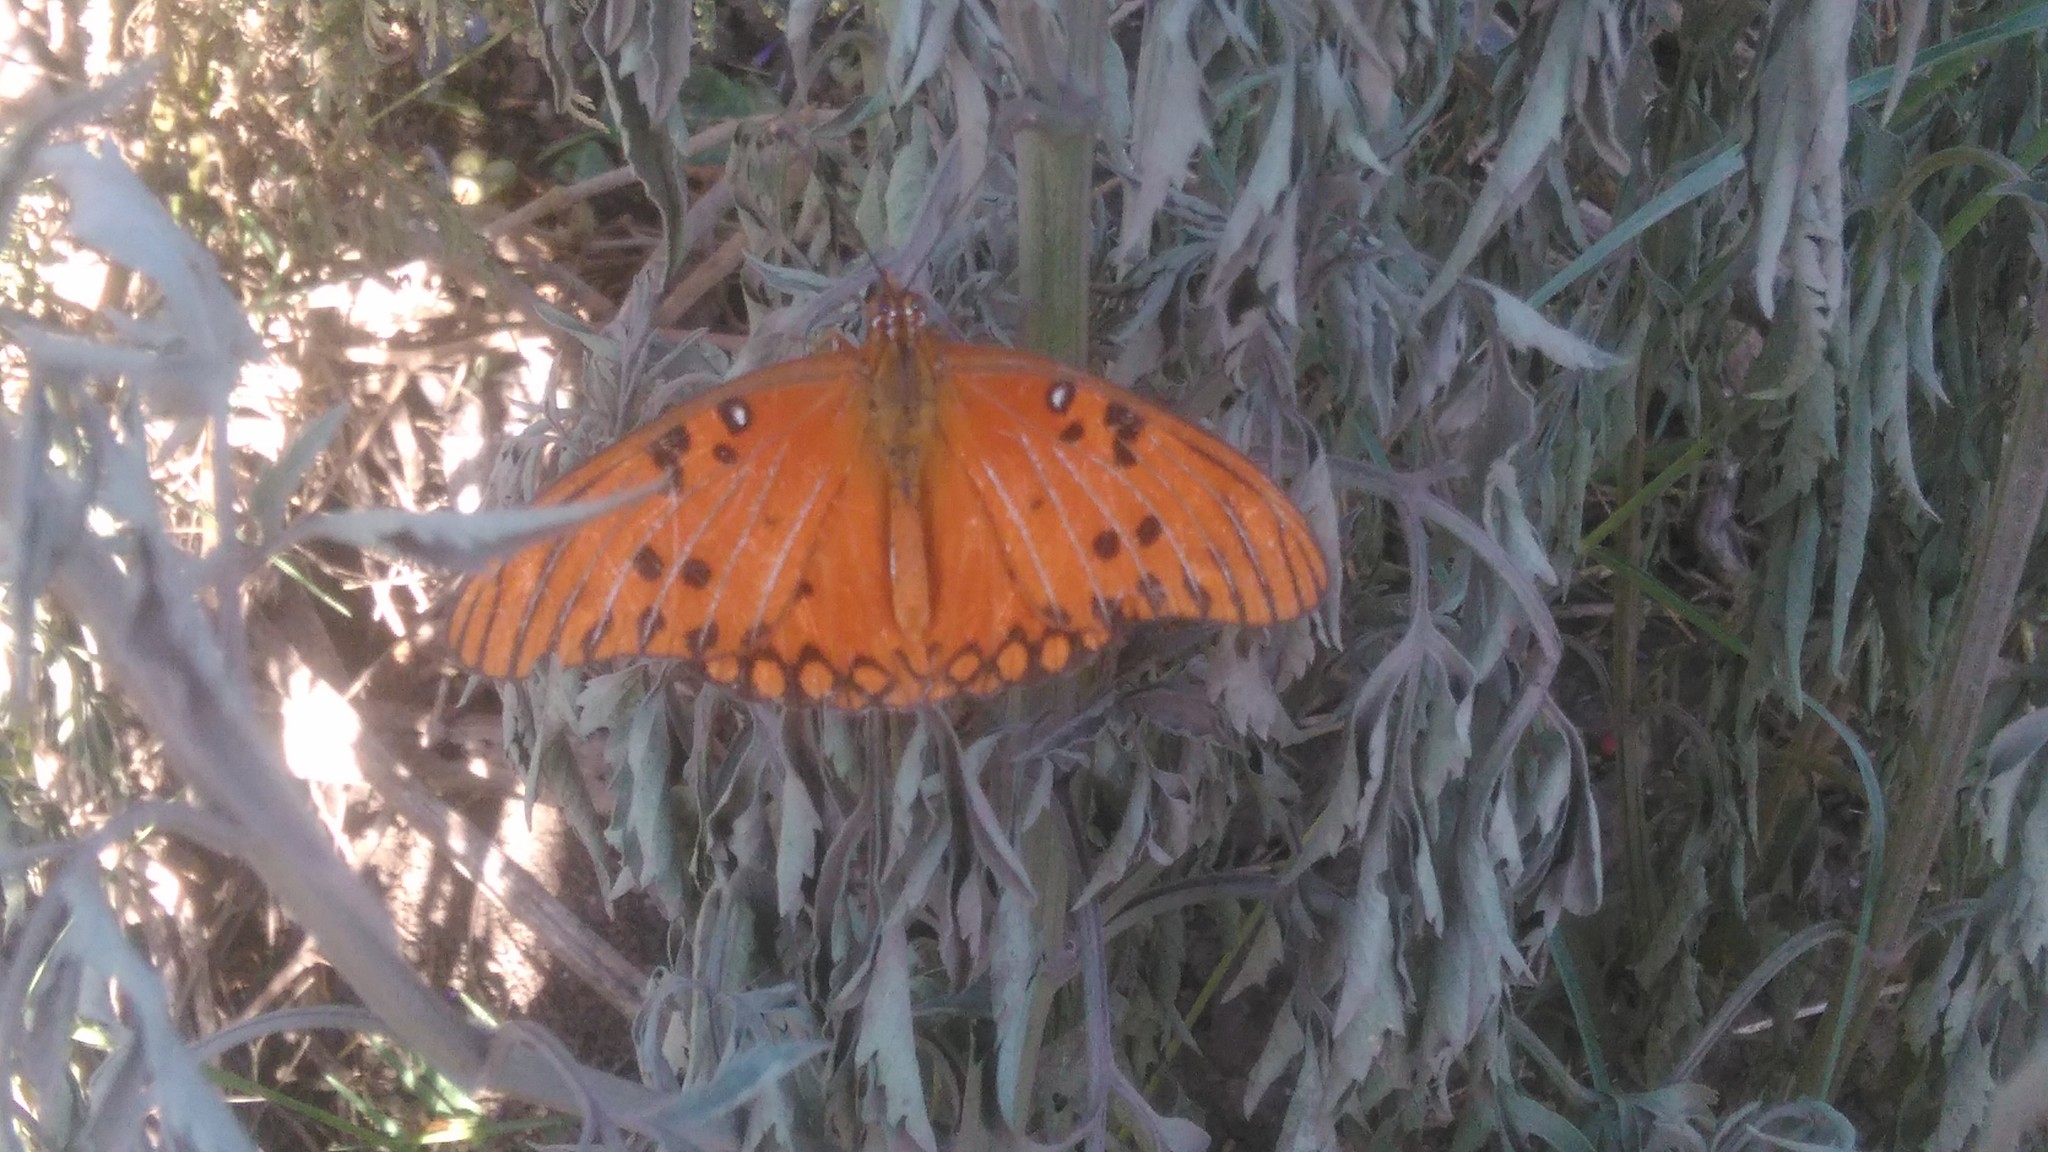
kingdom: Animalia
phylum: Arthropoda
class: Insecta
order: Lepidoptera
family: Nymphalidae
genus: Dione
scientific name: Dione vanillae
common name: Gulf fritillary
